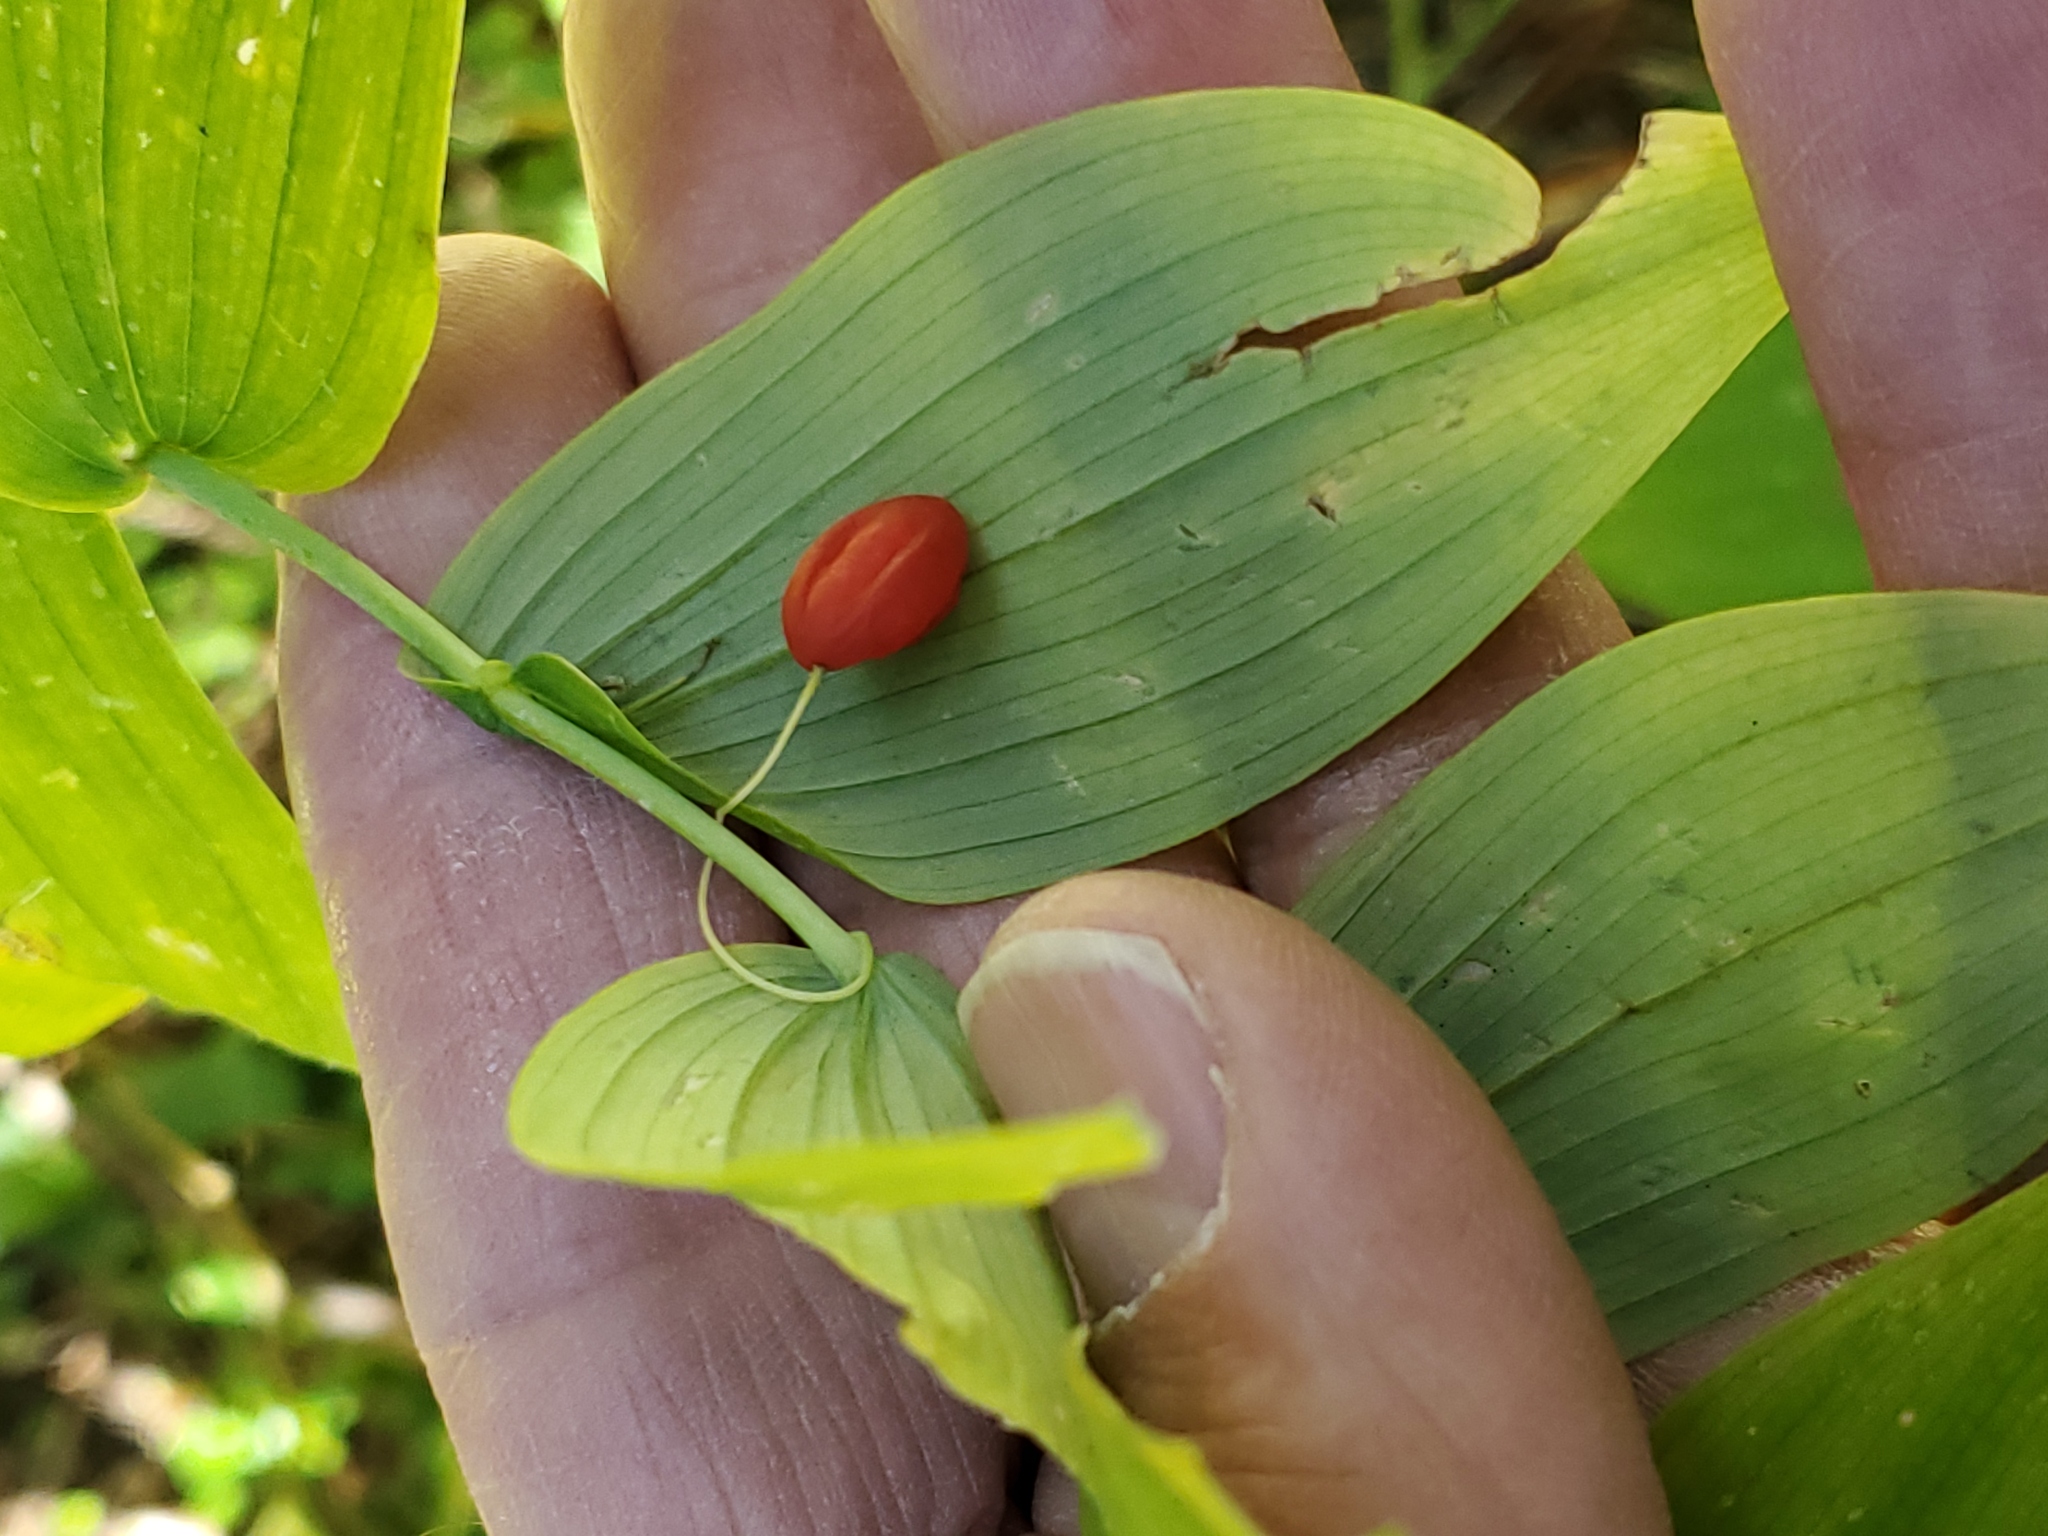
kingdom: Plantae
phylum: Tracheophyta
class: Liliopsida
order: Liliales
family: Liliaceae
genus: Streptopus
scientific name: Streptopus amplexifolius
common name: Clasp twisted stalk
